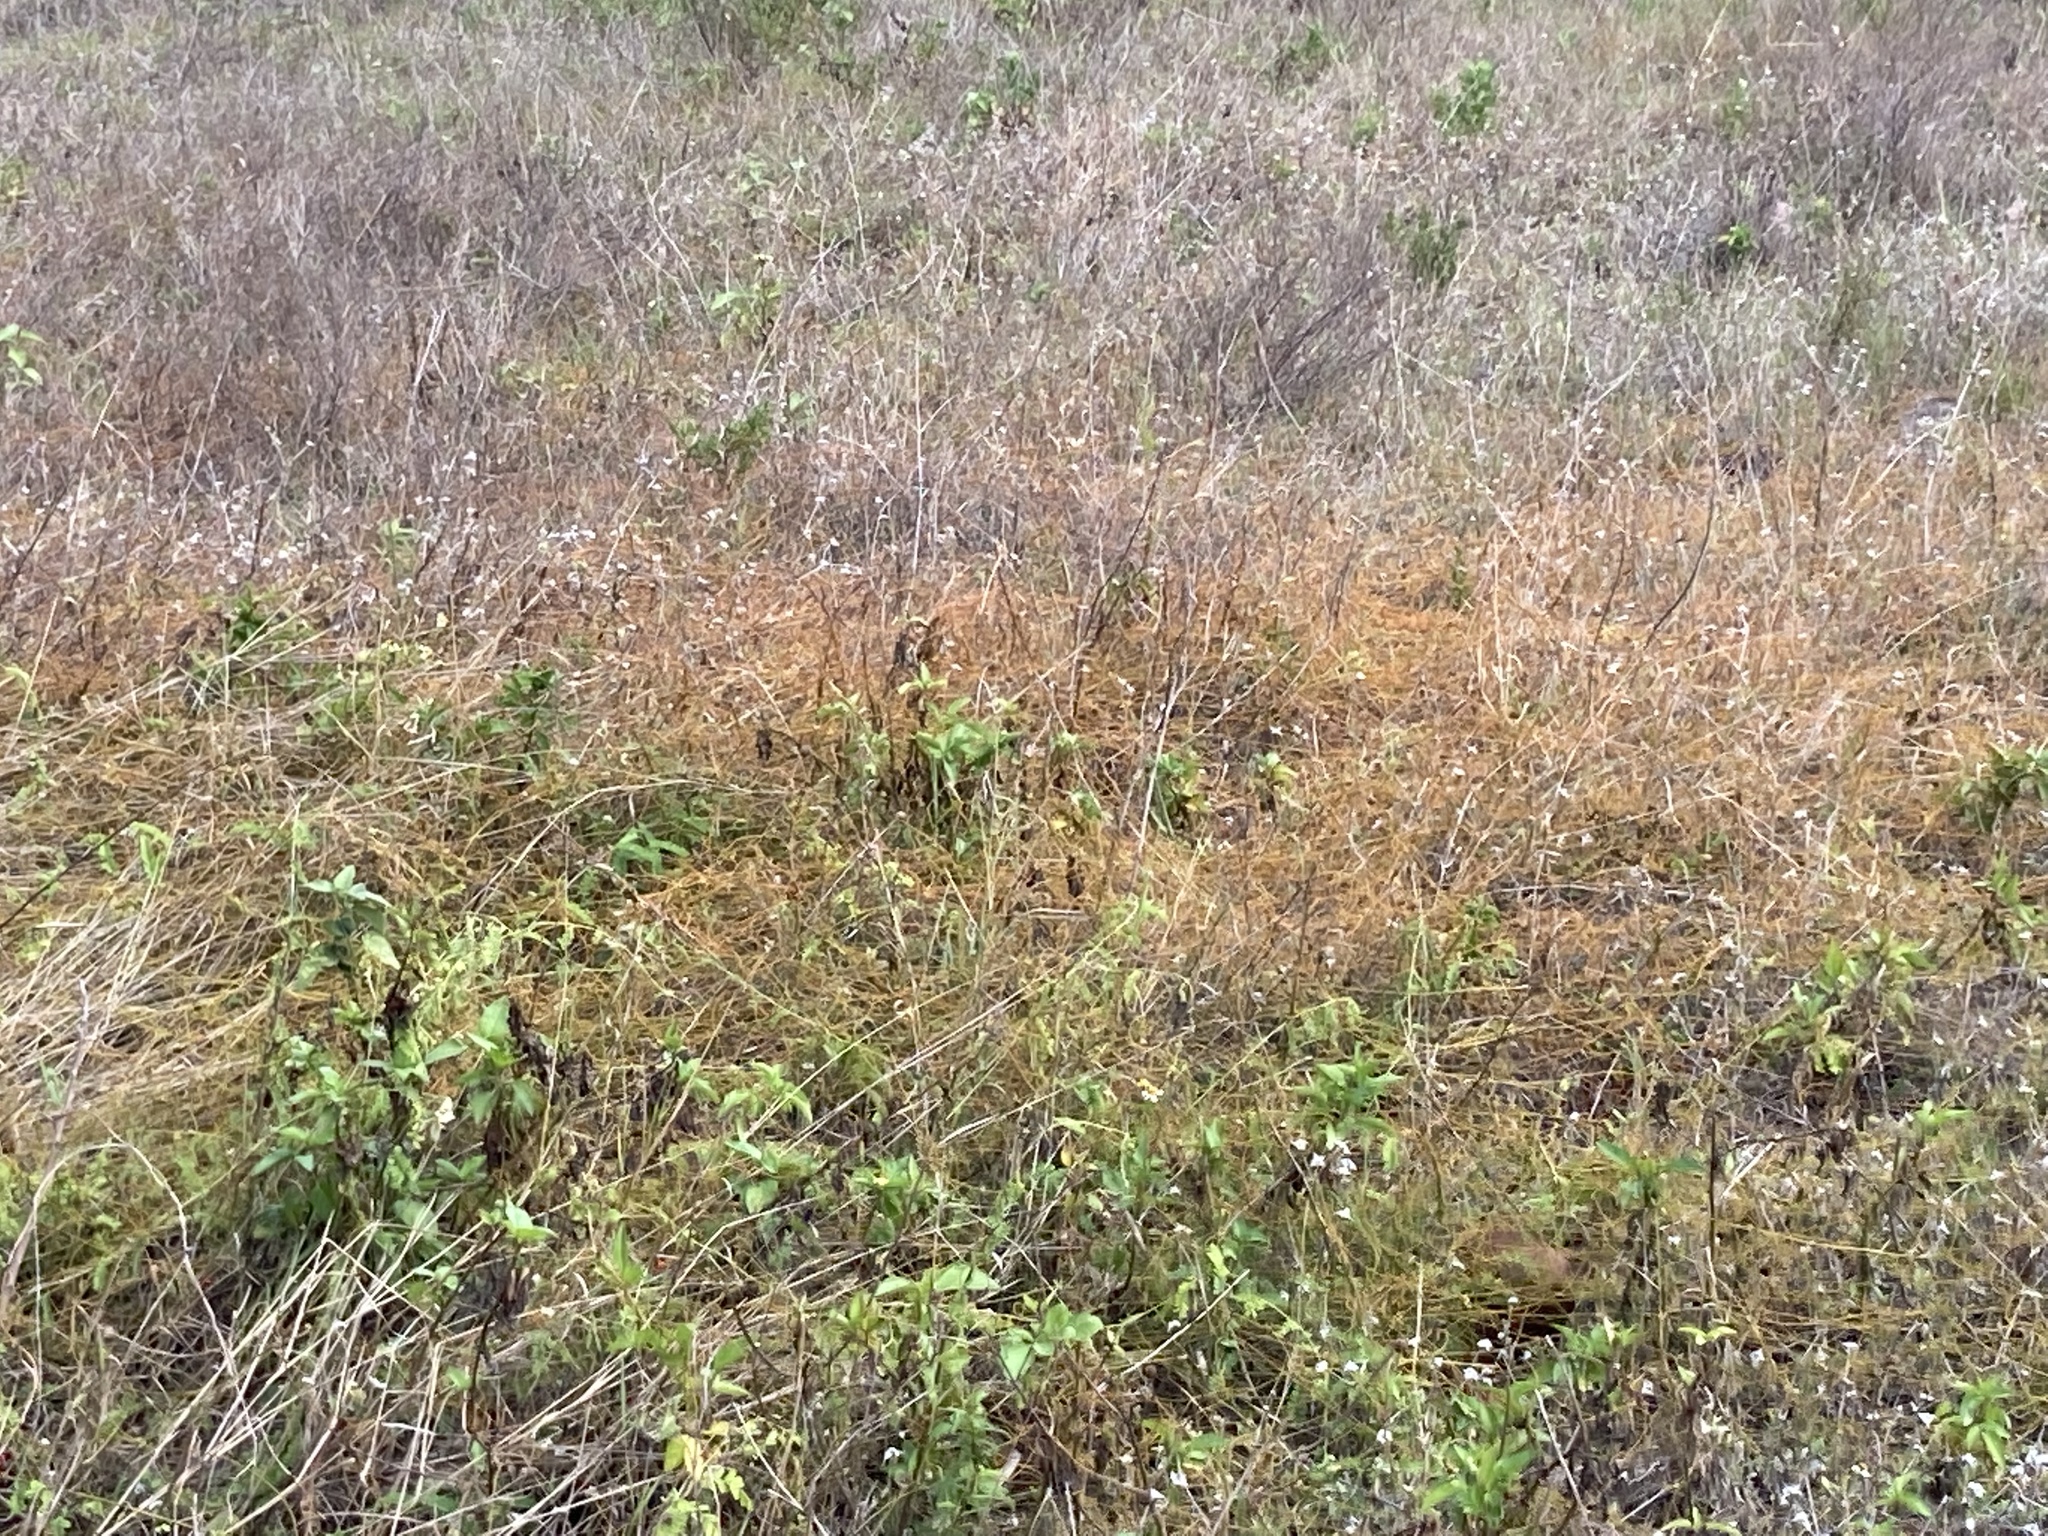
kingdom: Plantae
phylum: Tracheophyta
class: Magnoliopsida
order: Laurales
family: Lauraceae
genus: Cassytha
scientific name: Cassytha filiformis
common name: Dodder-laurel
